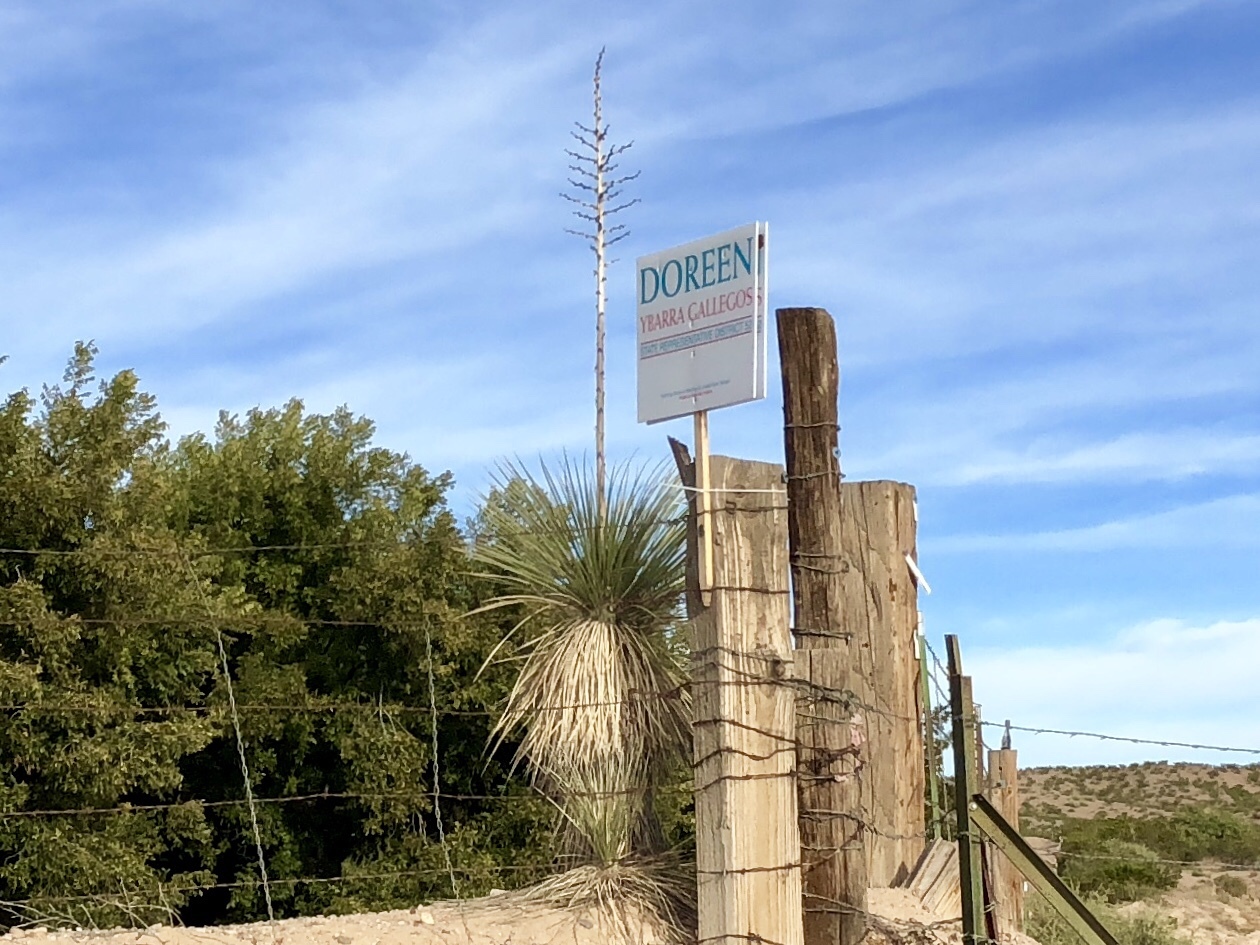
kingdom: Plantae
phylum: Tracheophyta
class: Liliopsida
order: Asparagales
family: Asparagaceae
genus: Yucca
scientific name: Yucca elata
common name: Palmella
